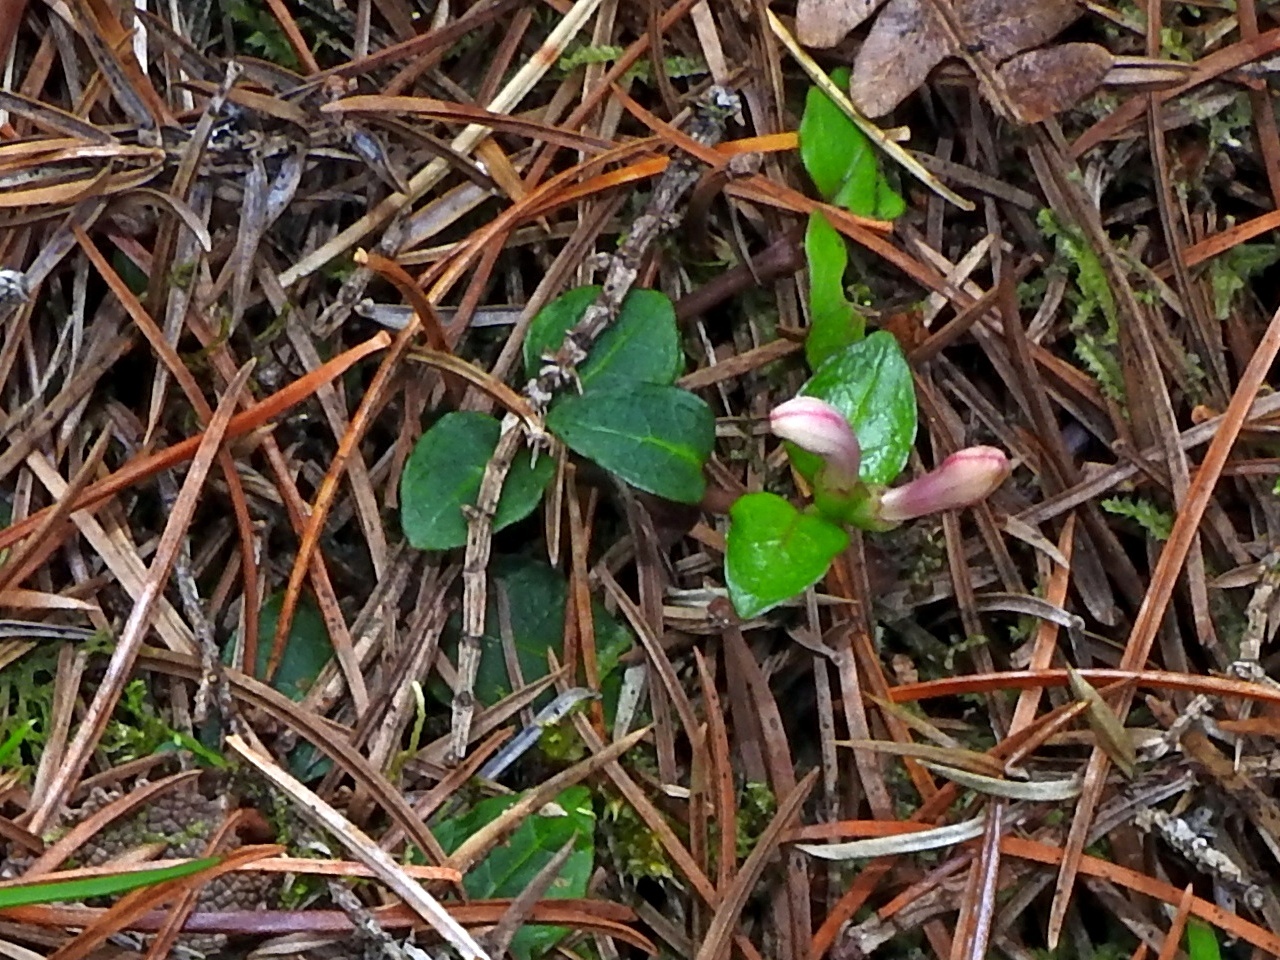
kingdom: Plantae
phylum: Tracheophyta
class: Magnoliopsida
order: Gentianales
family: Rubiaceae
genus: Mitchella
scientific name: Mitchella undulata
